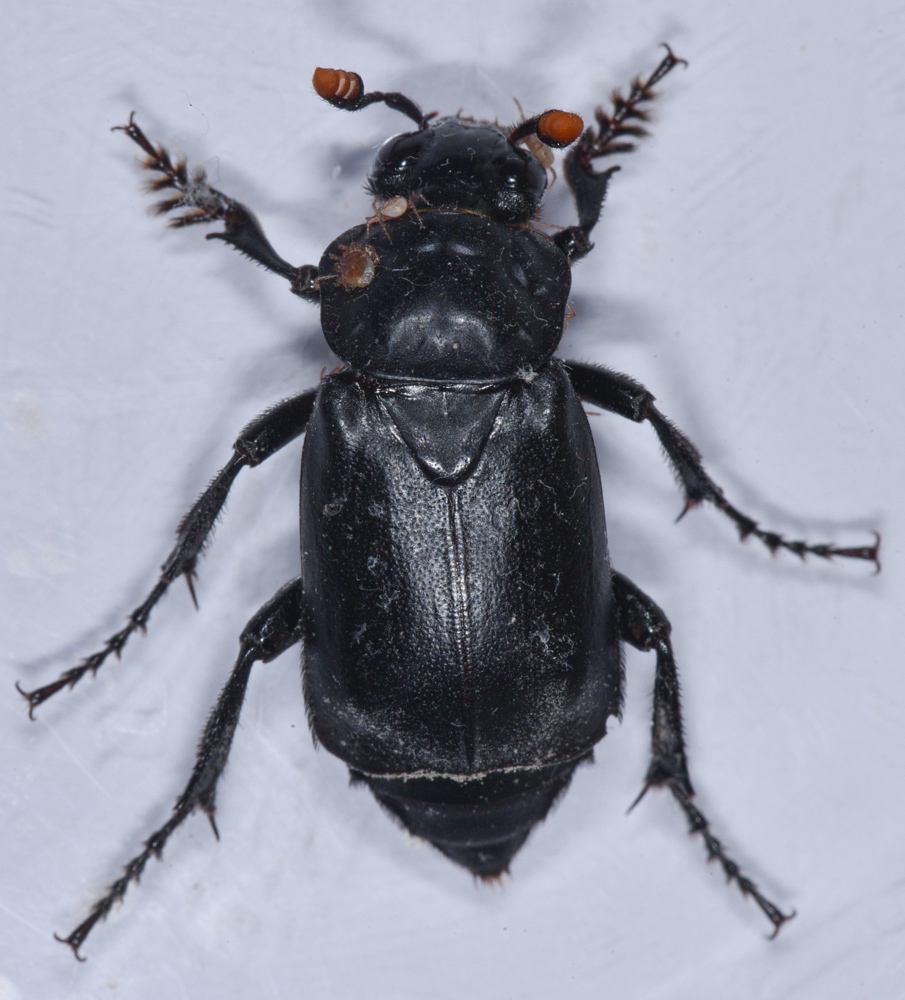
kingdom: Animalia
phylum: Arthropoda
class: Insecta
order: Coleoptera
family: Staphylinidae
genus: Nicrophorus
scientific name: Nicrophorus nigrita
